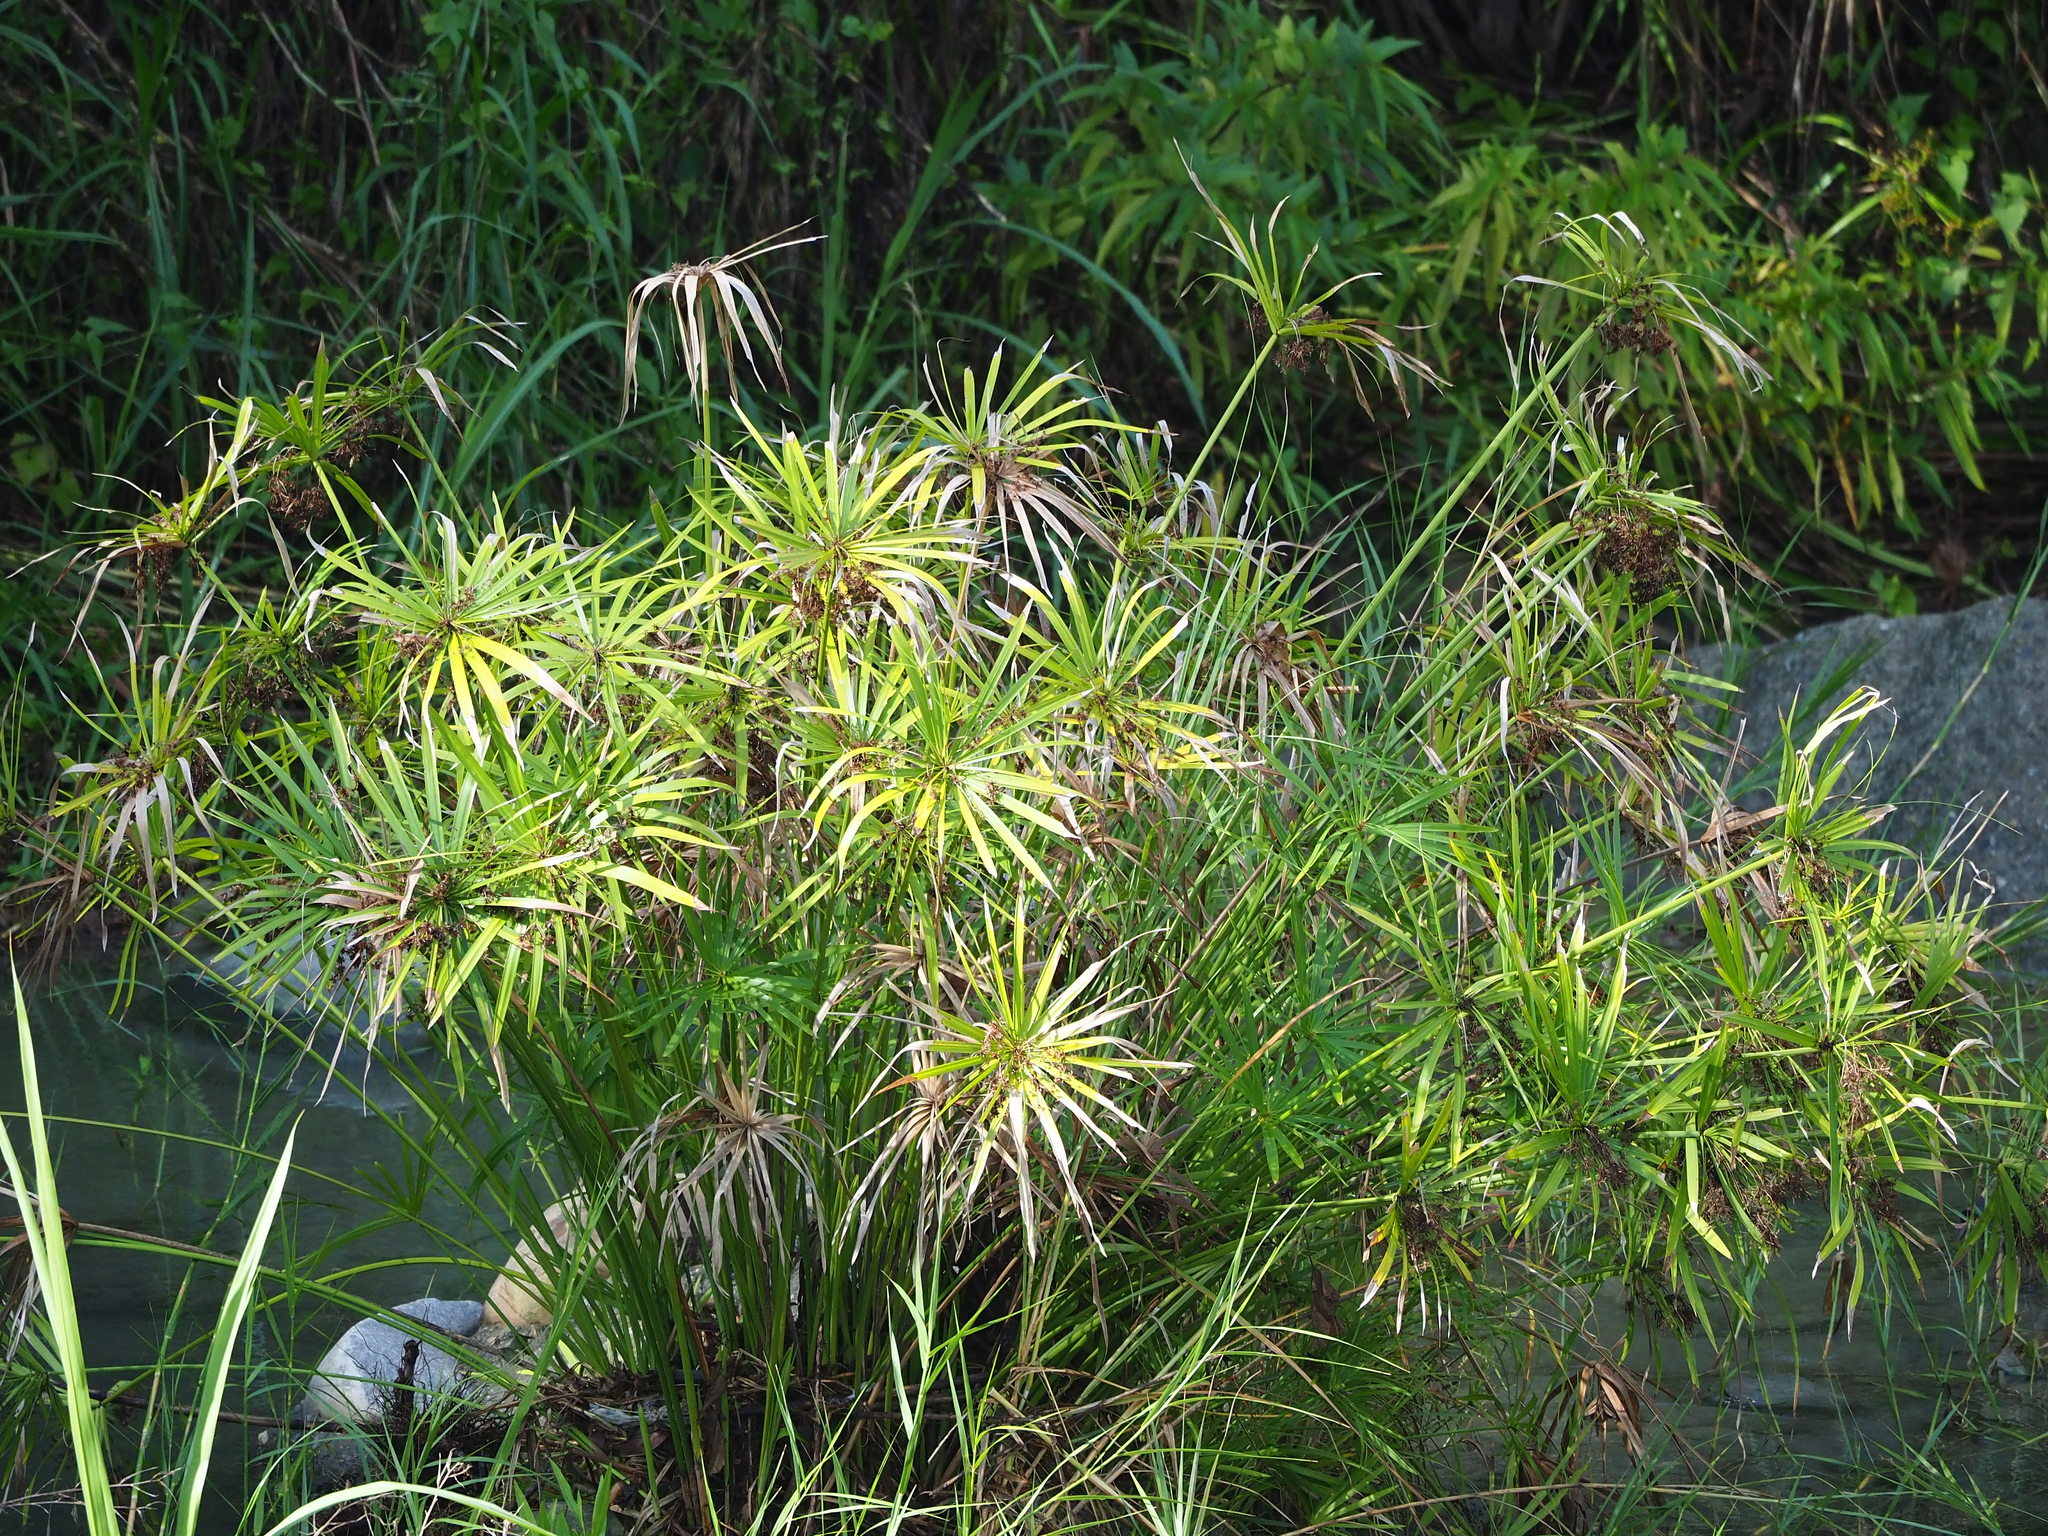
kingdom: Plantae
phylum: Tracheophyta
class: Liliopsida
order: Poales
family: Cyperaceae
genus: Cyperus
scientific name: Cyperus alternifolius
